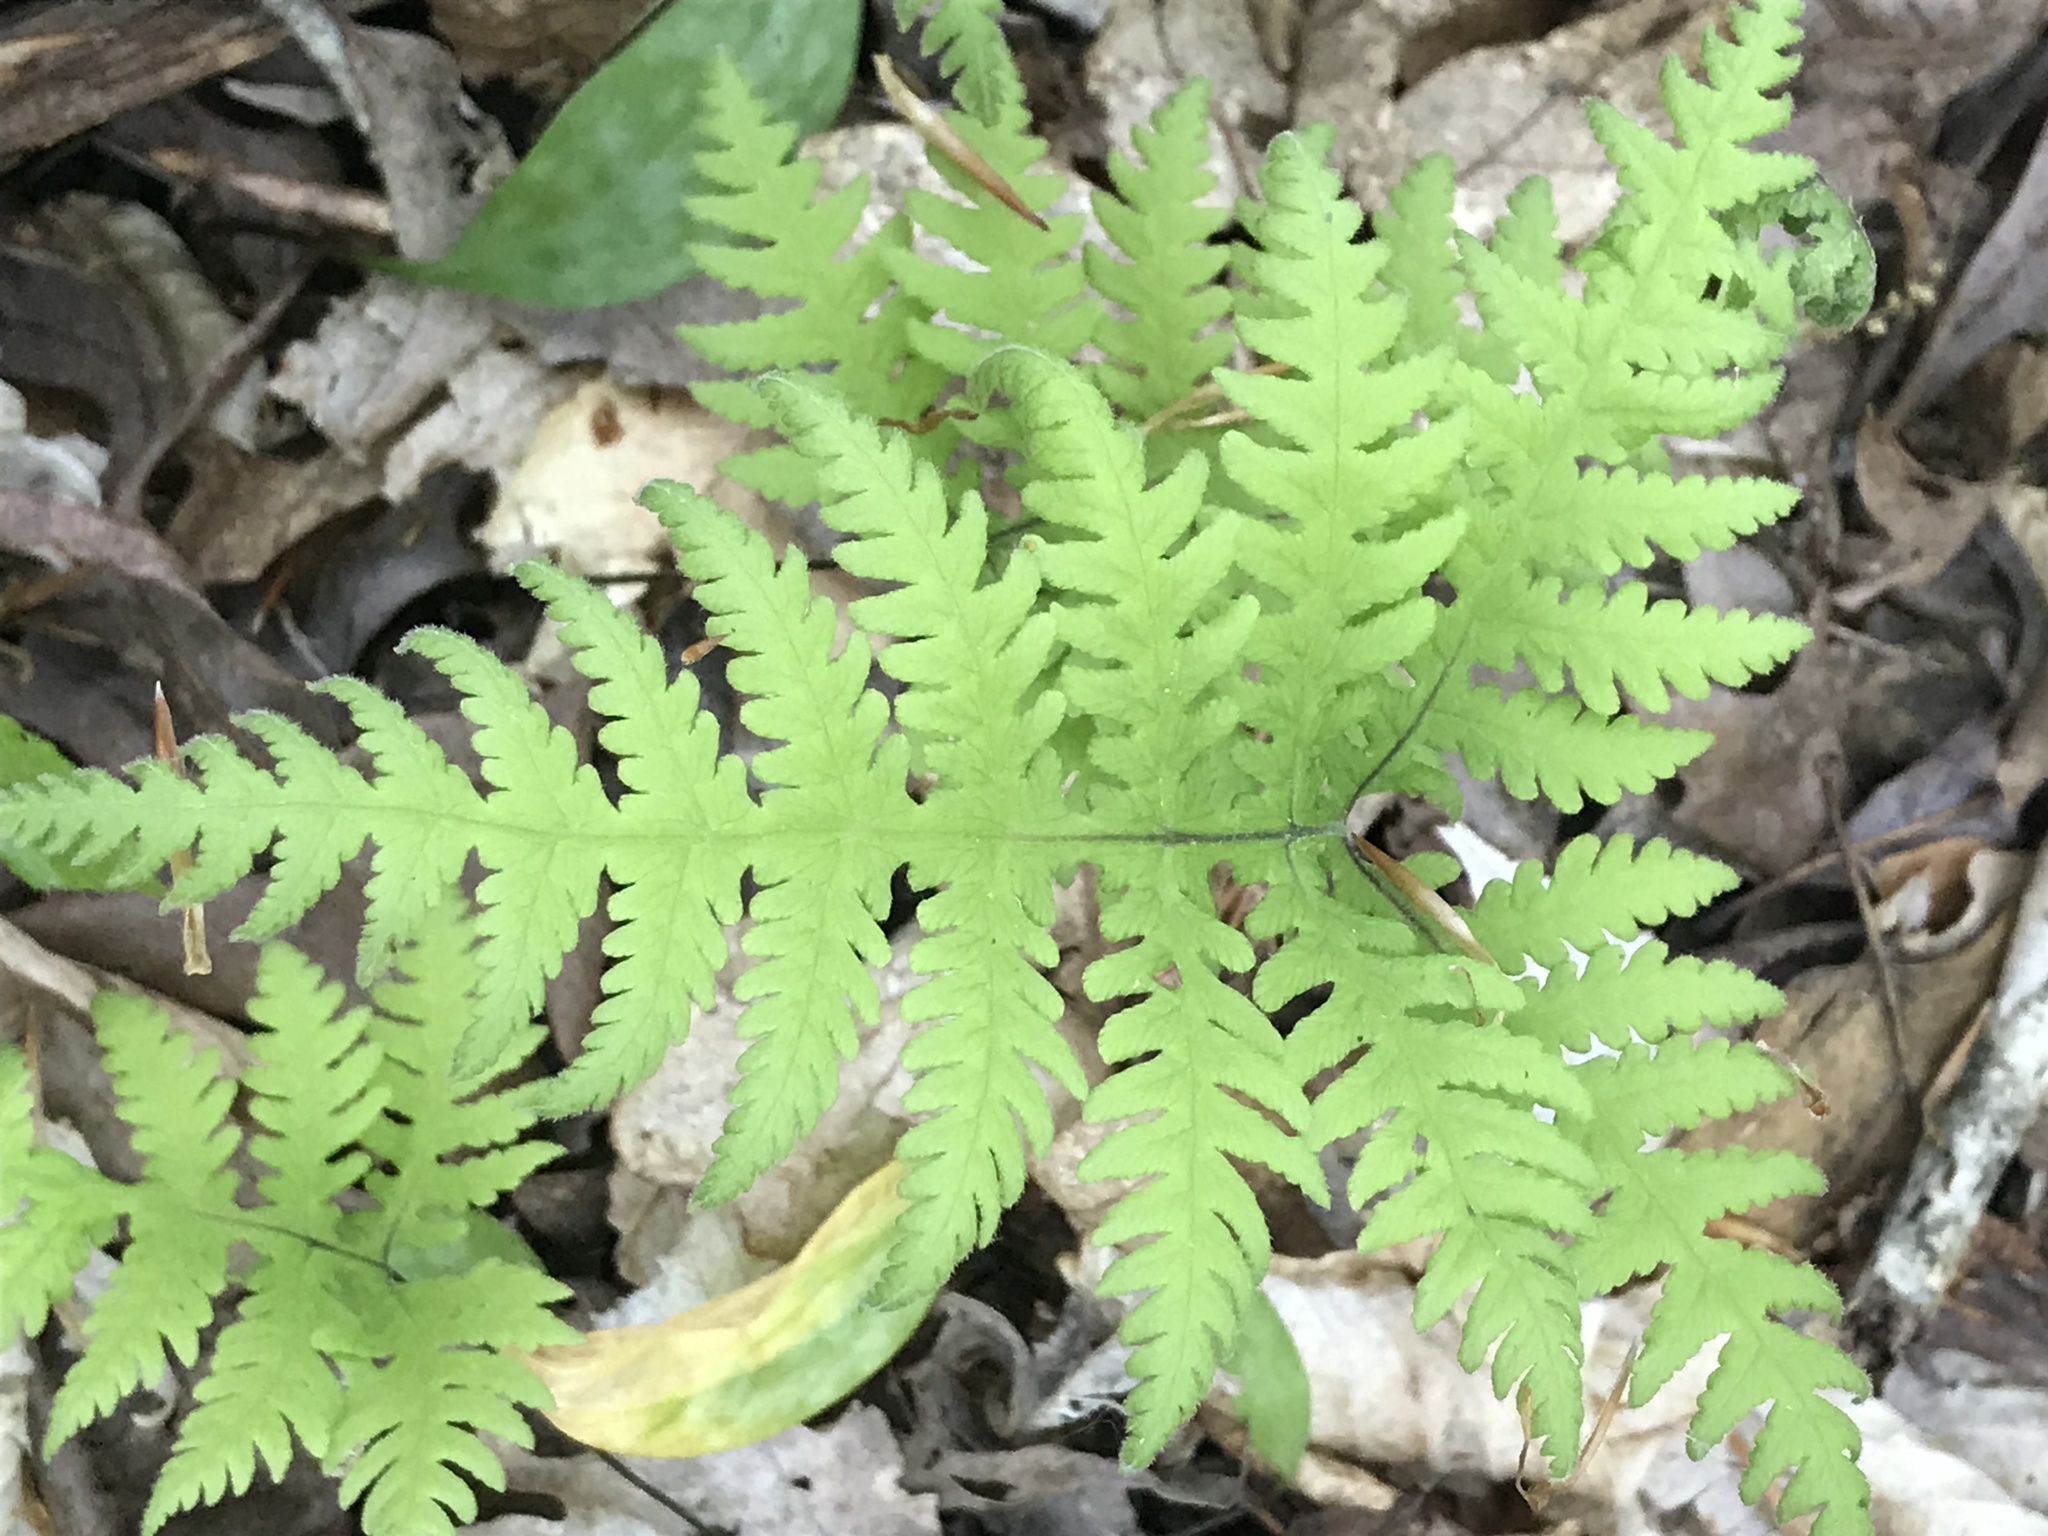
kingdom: Plantae
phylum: Tracheophyta
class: Polypodiopsida
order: Polypodiales
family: Thelypteridaceae
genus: Phegopteris
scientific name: Phegopteris hexagonoptera
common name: Broad beech fern
